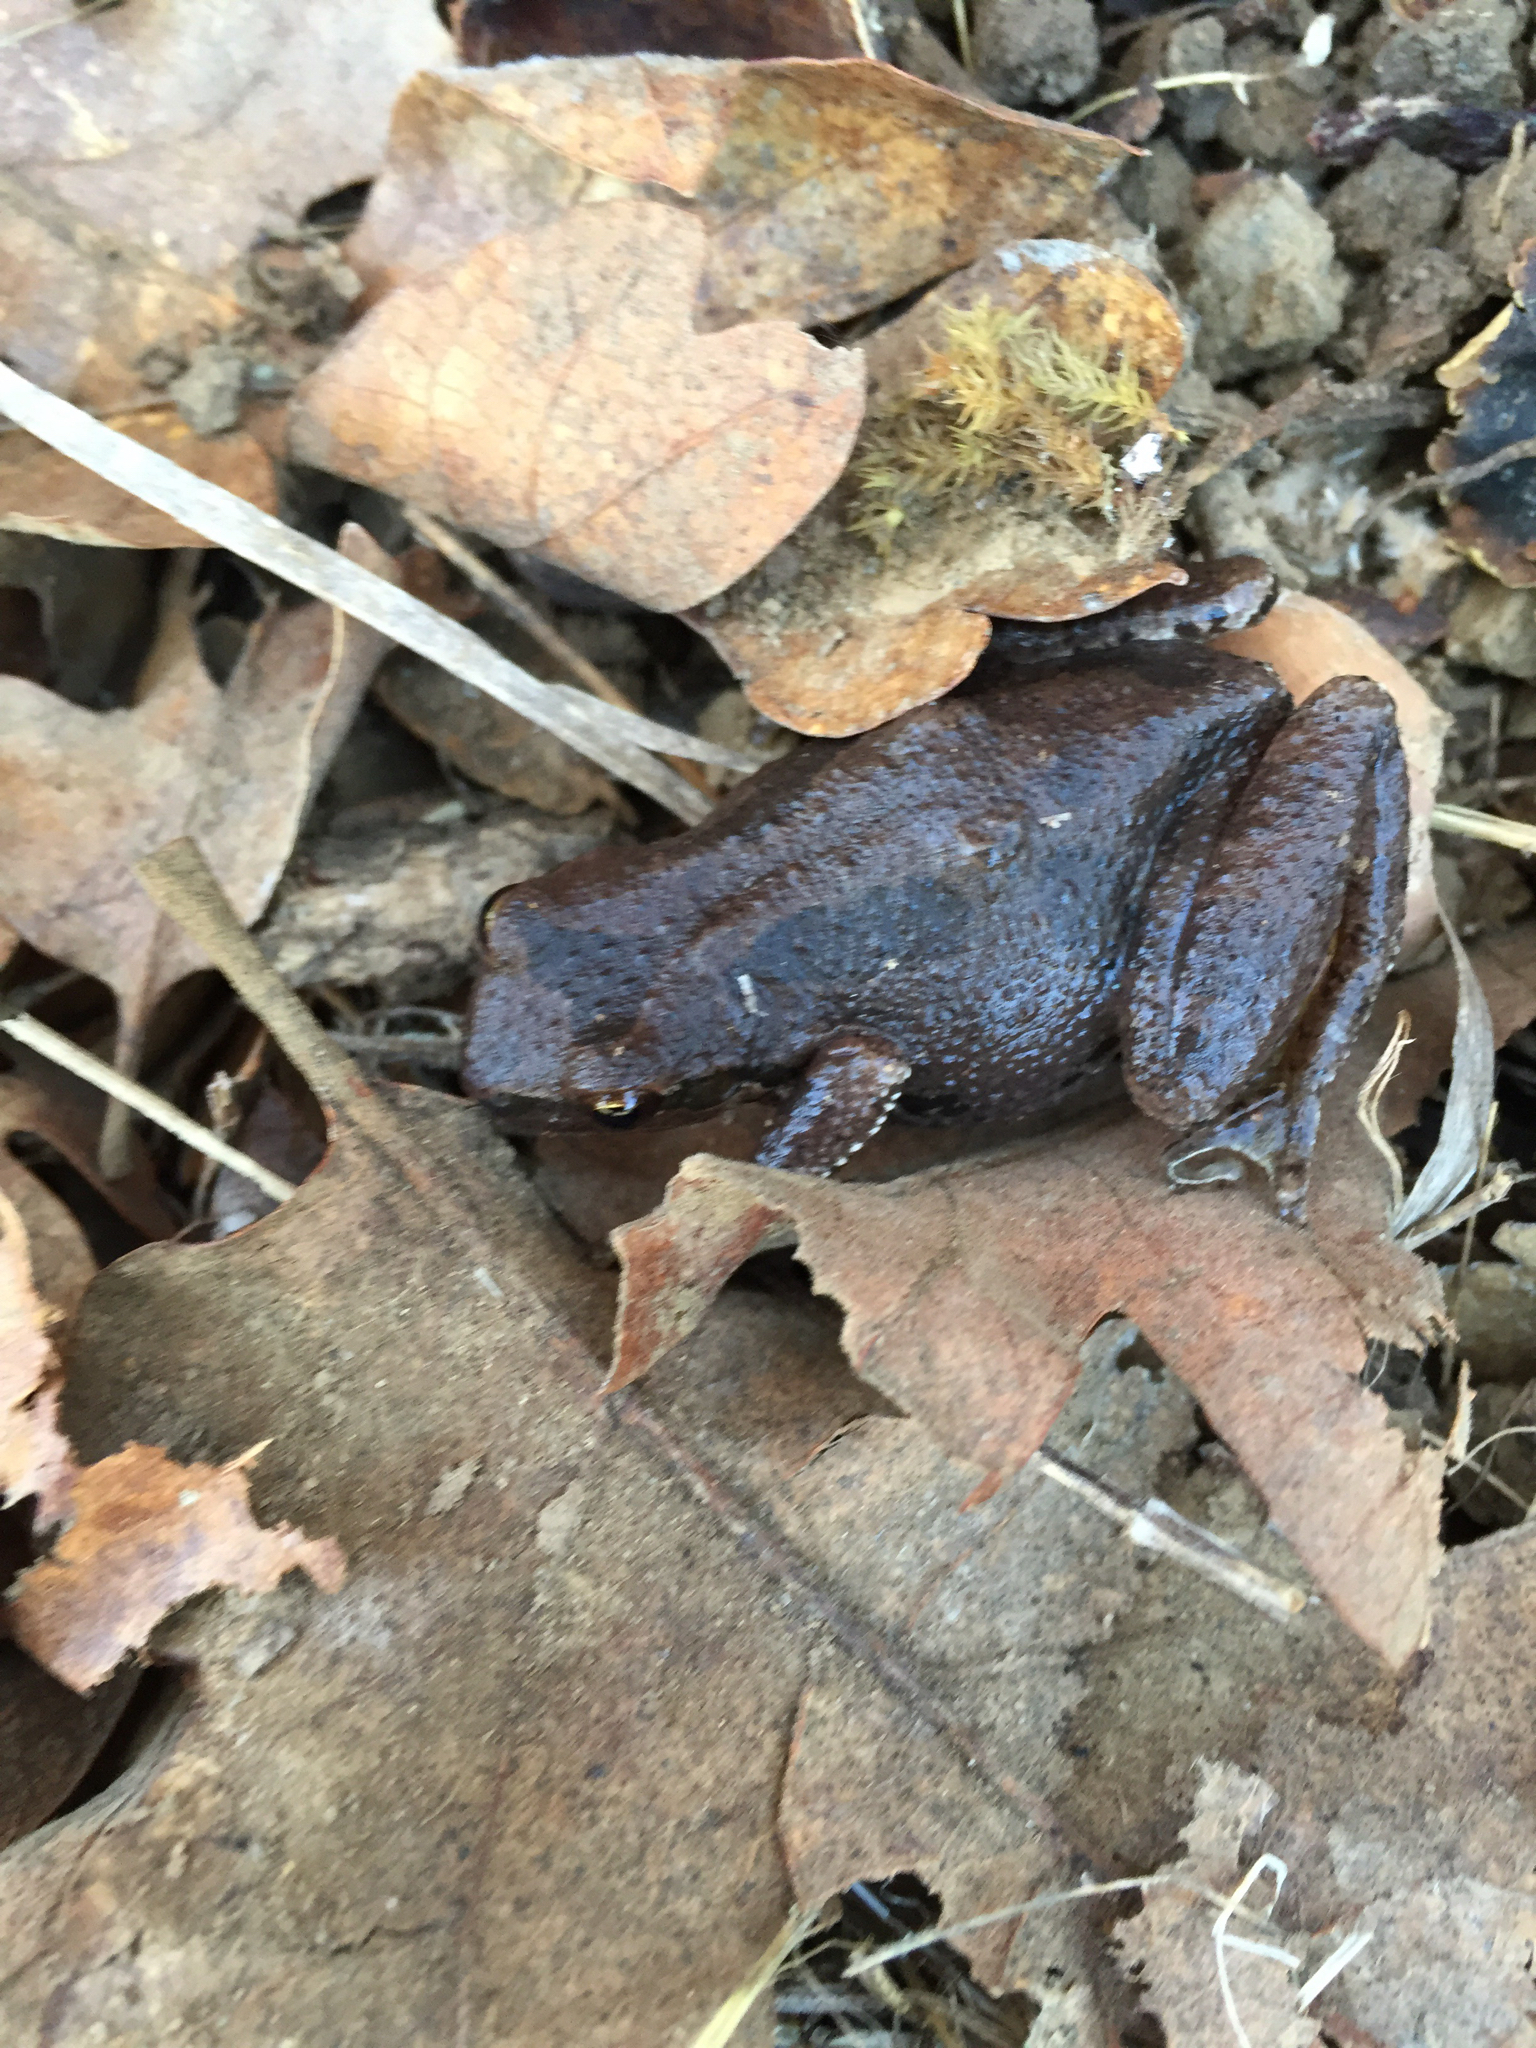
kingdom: Animalia
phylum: Chordata
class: Amphibia
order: Anura
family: Hylidae
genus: Pseudacris
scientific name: Pseudacris regilla
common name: Pacific chorus frog
